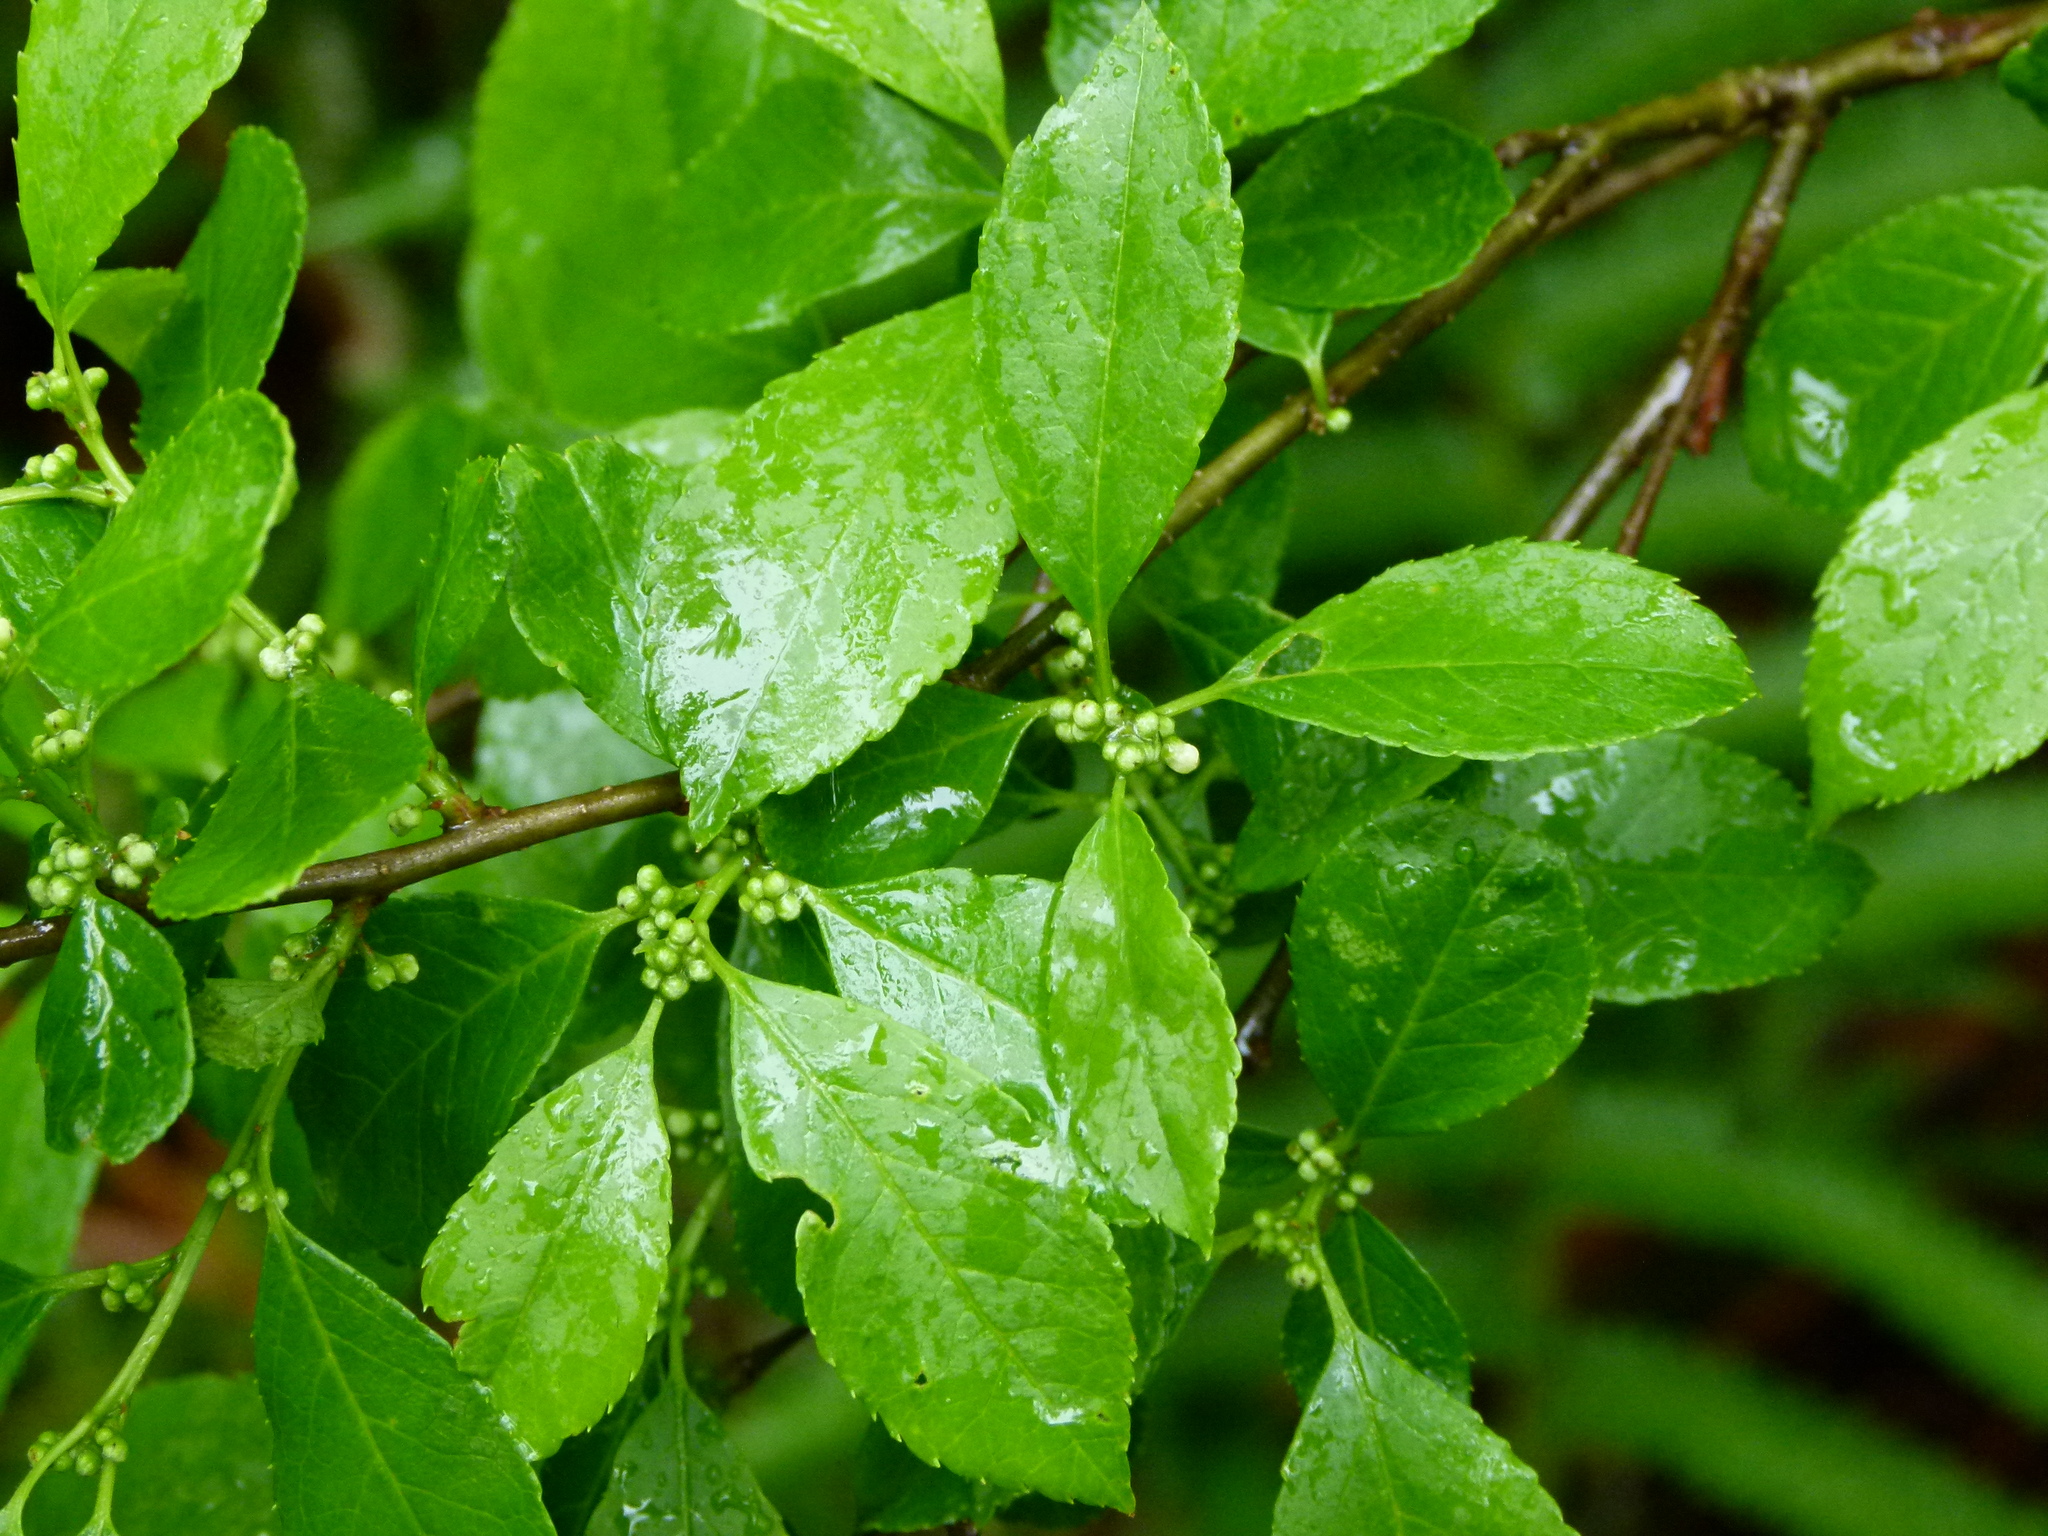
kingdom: Plantae
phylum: Tracheophyta
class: Magnoliopsida
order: Aquifoliales
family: Aquifoliaceae
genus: Ilex
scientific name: Ilex verticillata
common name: Virginia winterberry
